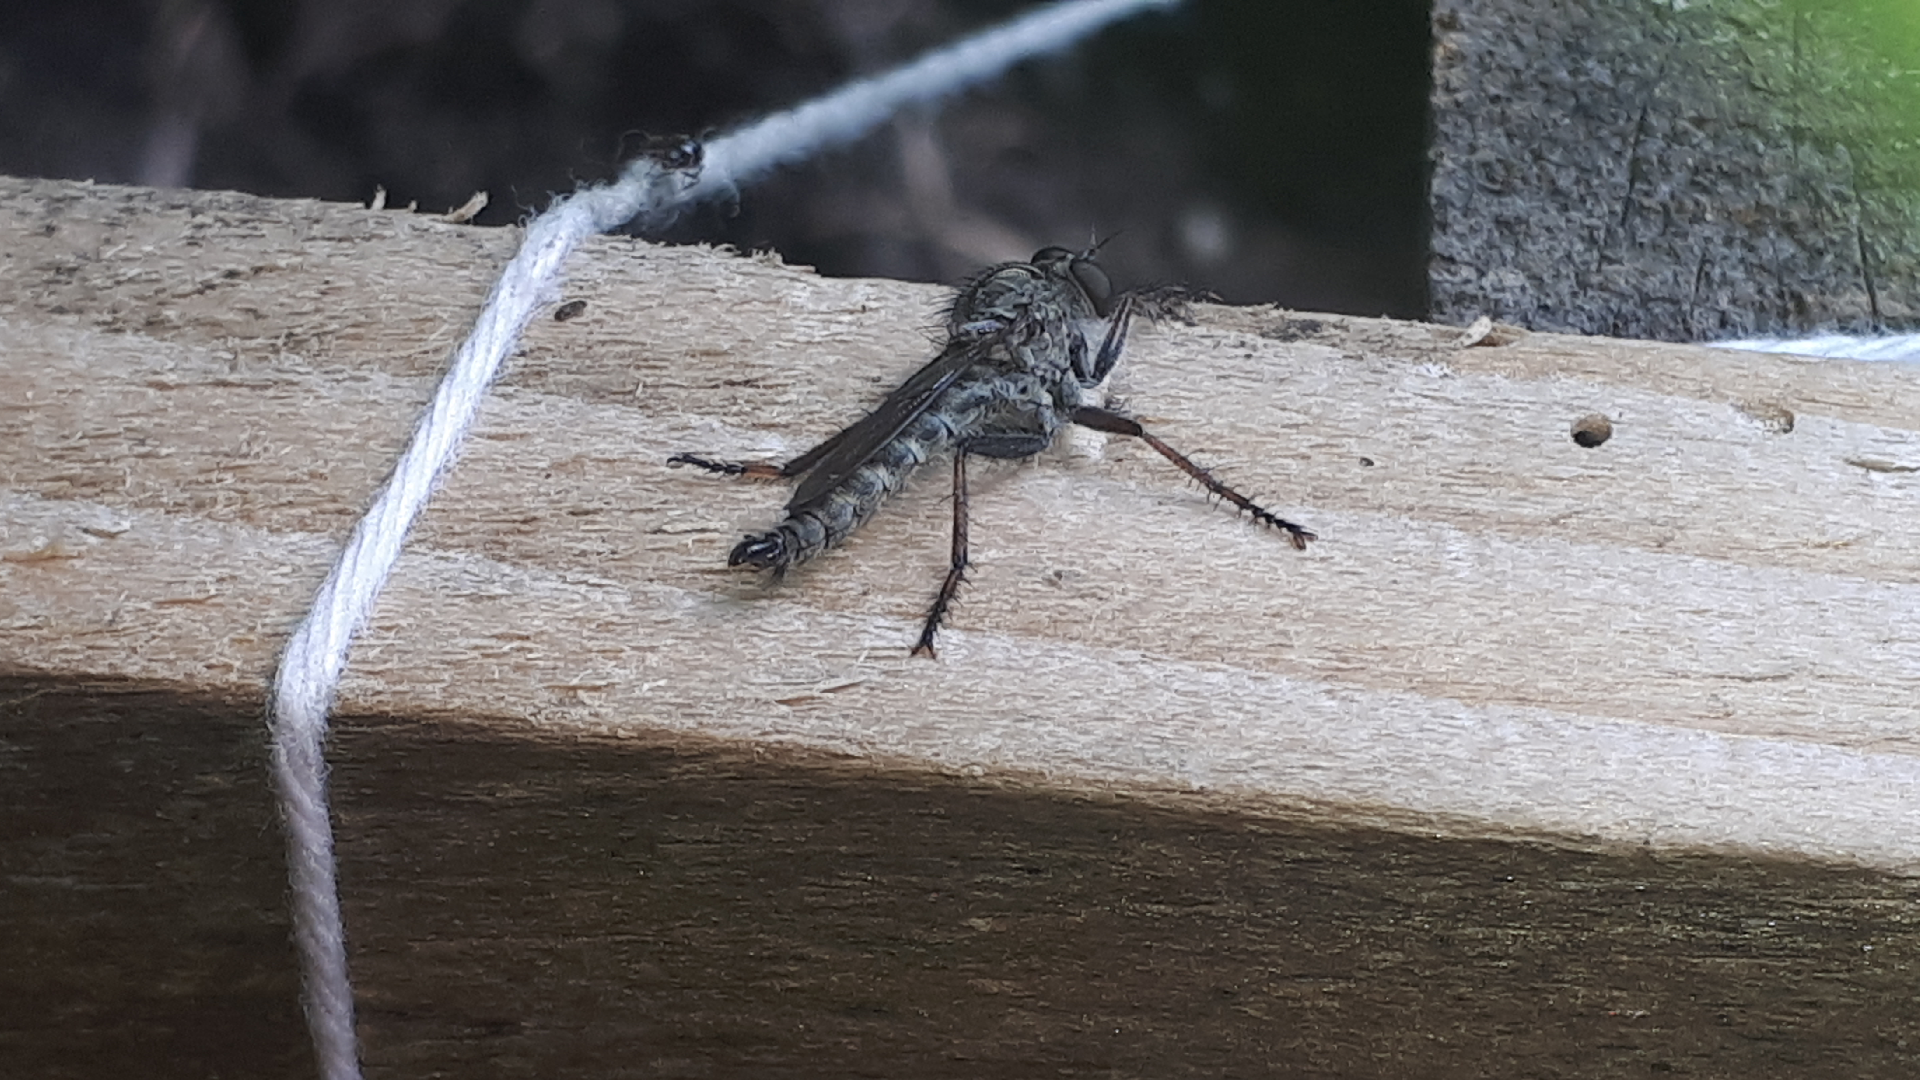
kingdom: Animalia
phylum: Arthropoda
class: Insecta
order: Diptera
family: Asilidae
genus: Machimus
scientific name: Machimus atricapillus
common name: Kite-tailed robberfly
